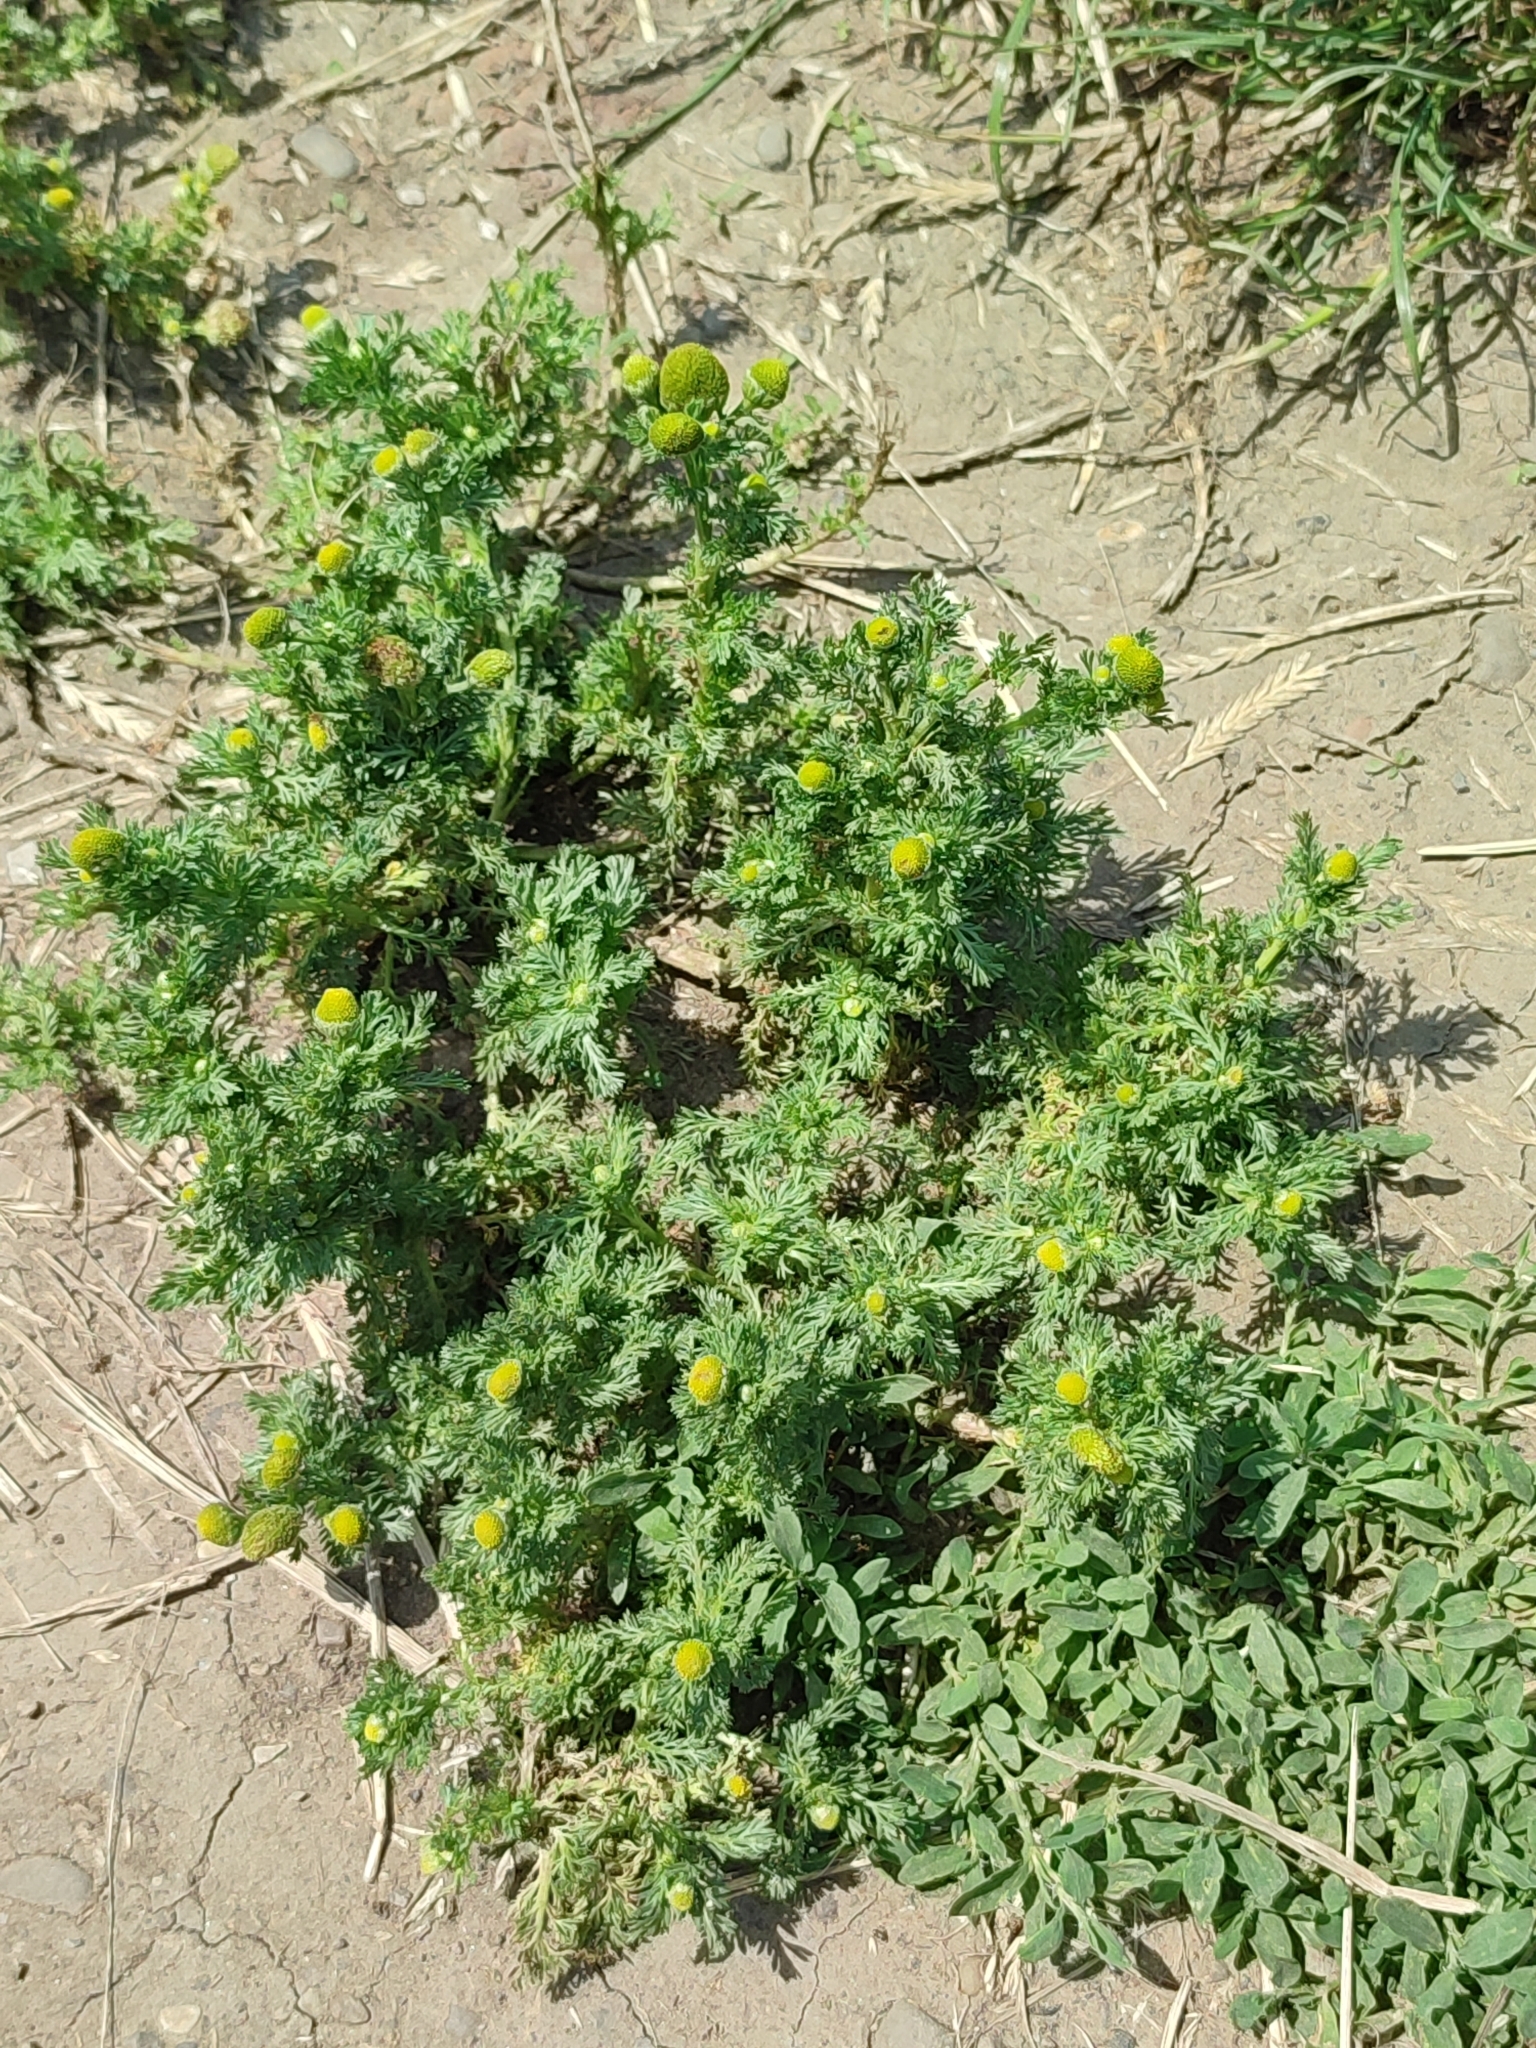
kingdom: Plantae
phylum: Tracheophyta
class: Magnoliopsida
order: Asterales
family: Asteraceae
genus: Matricaria
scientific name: Matricaria discoidea
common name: Disc mayweed
